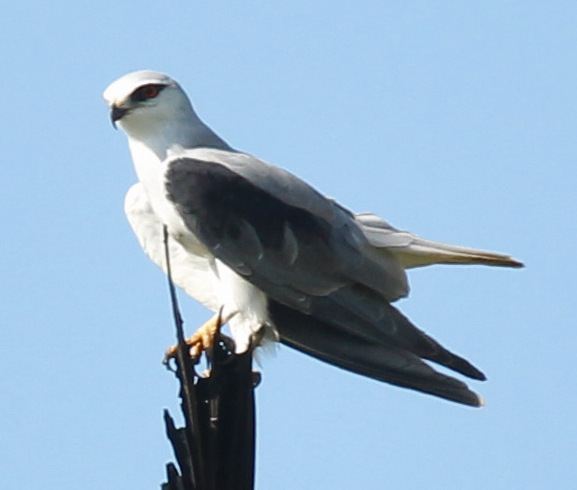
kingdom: Animalia
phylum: Chordata
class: Aves
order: Accipitriformes
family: Accipitridae
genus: Elanus
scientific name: Elanus caeruleus
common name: Black-winged kite
